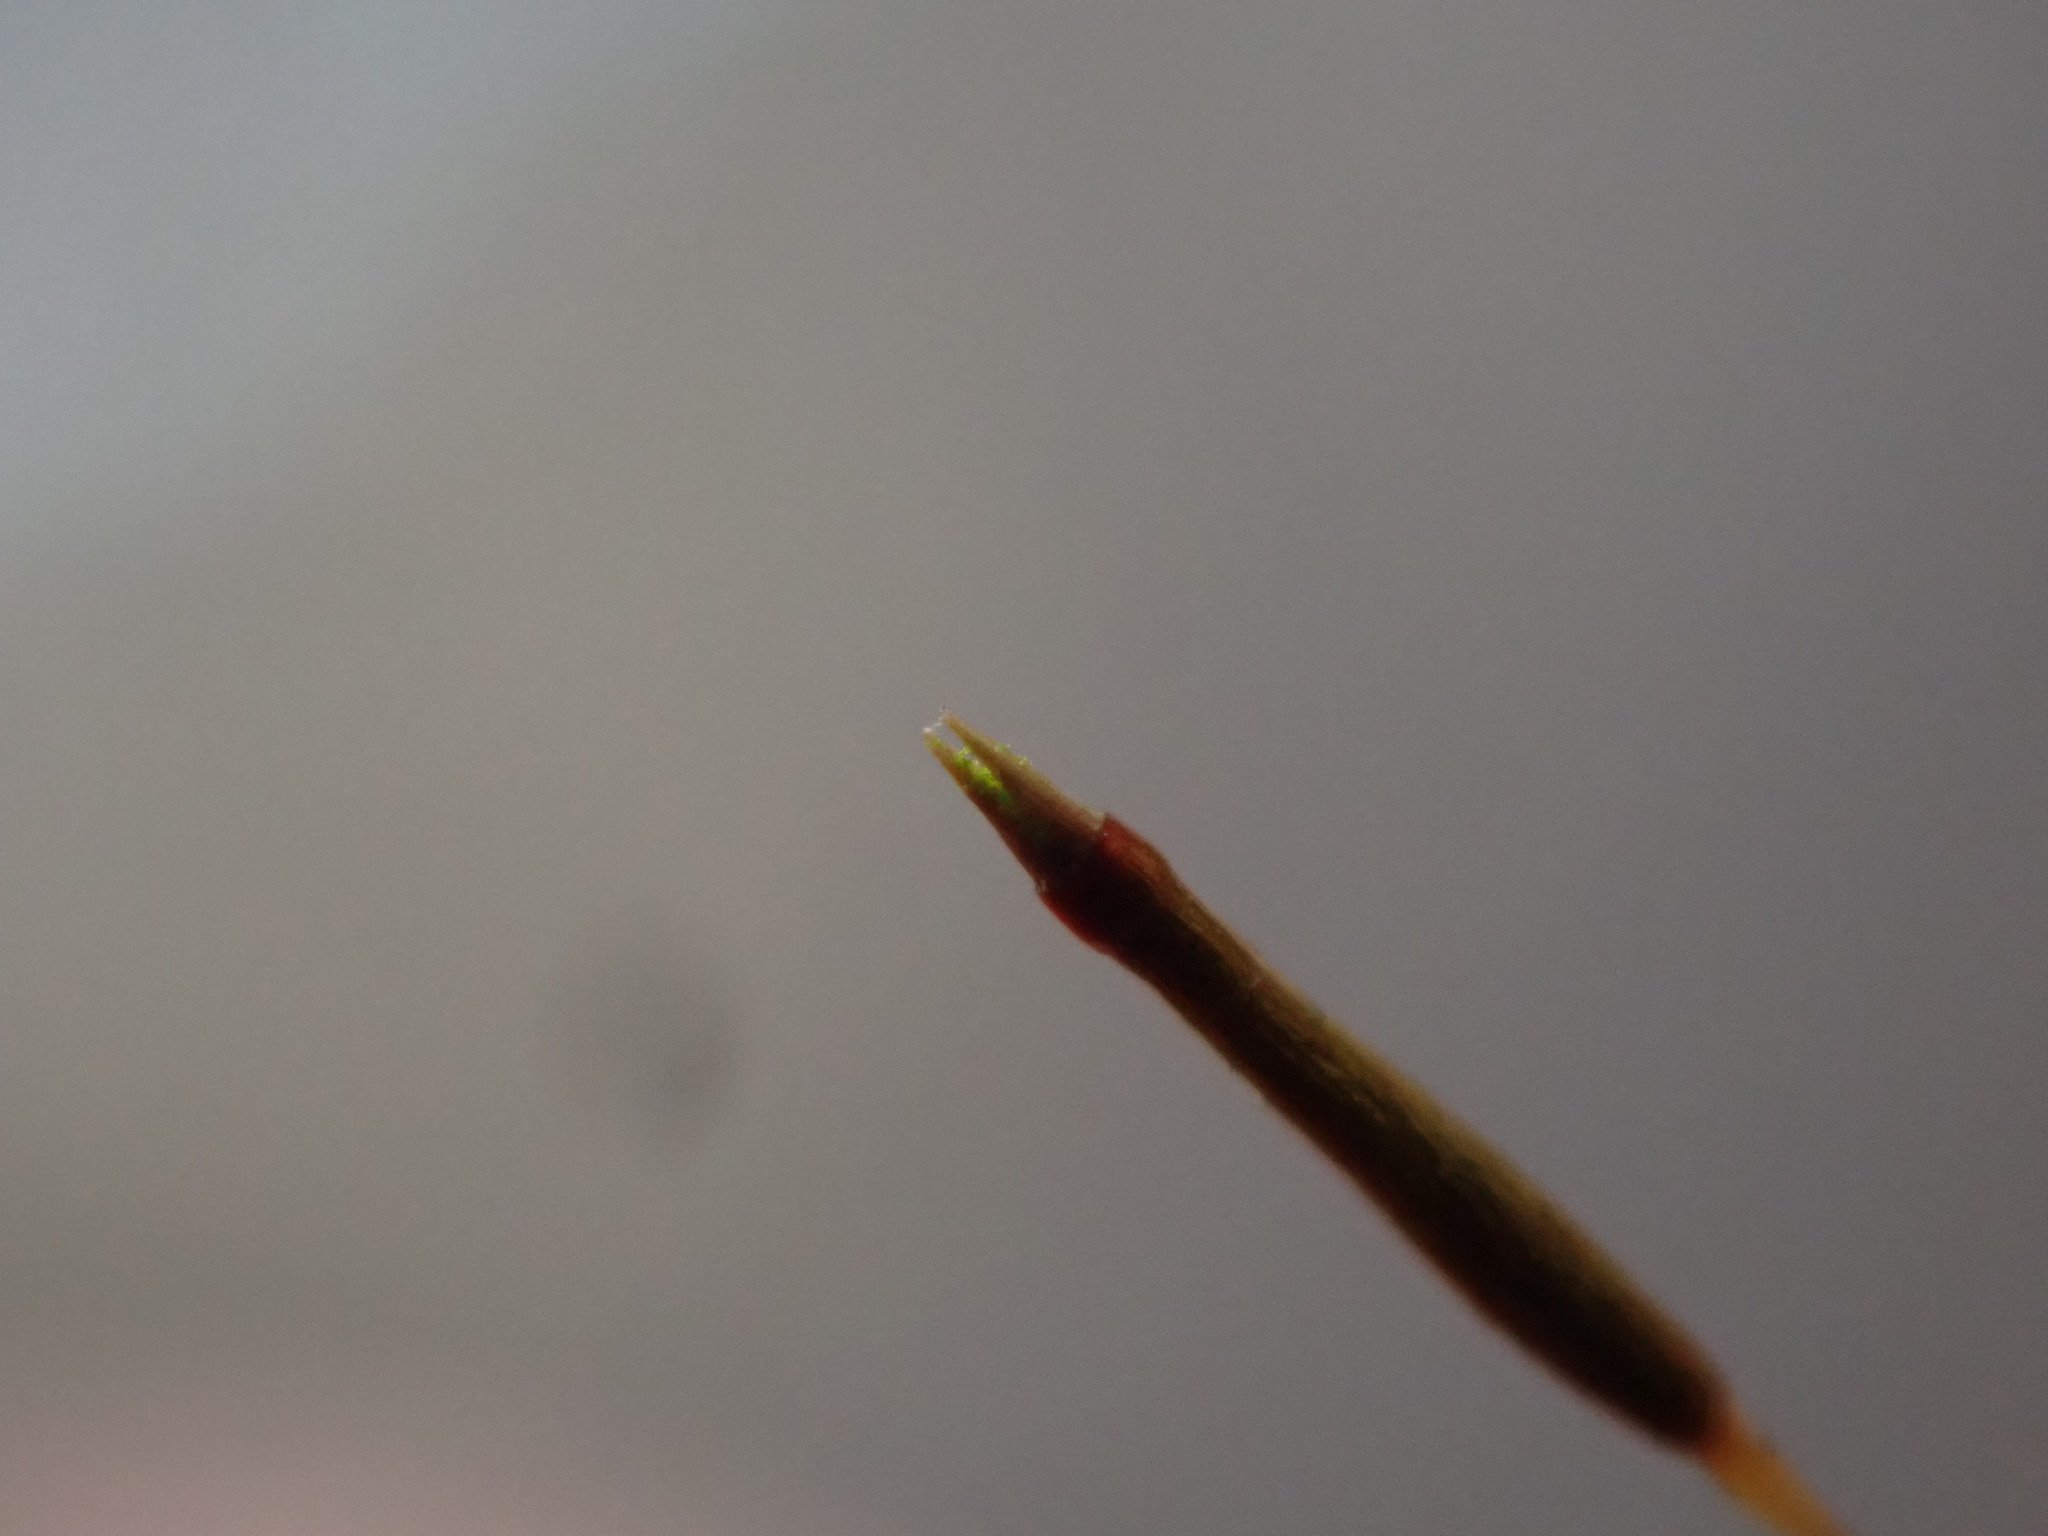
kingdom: Plantae
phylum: Bryophyta
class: Polytrichopsida
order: Tetraphidales
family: Tetraphidaceae
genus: Tetraphis
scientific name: Tetraphis pellucida
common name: Common four-toothed moss
